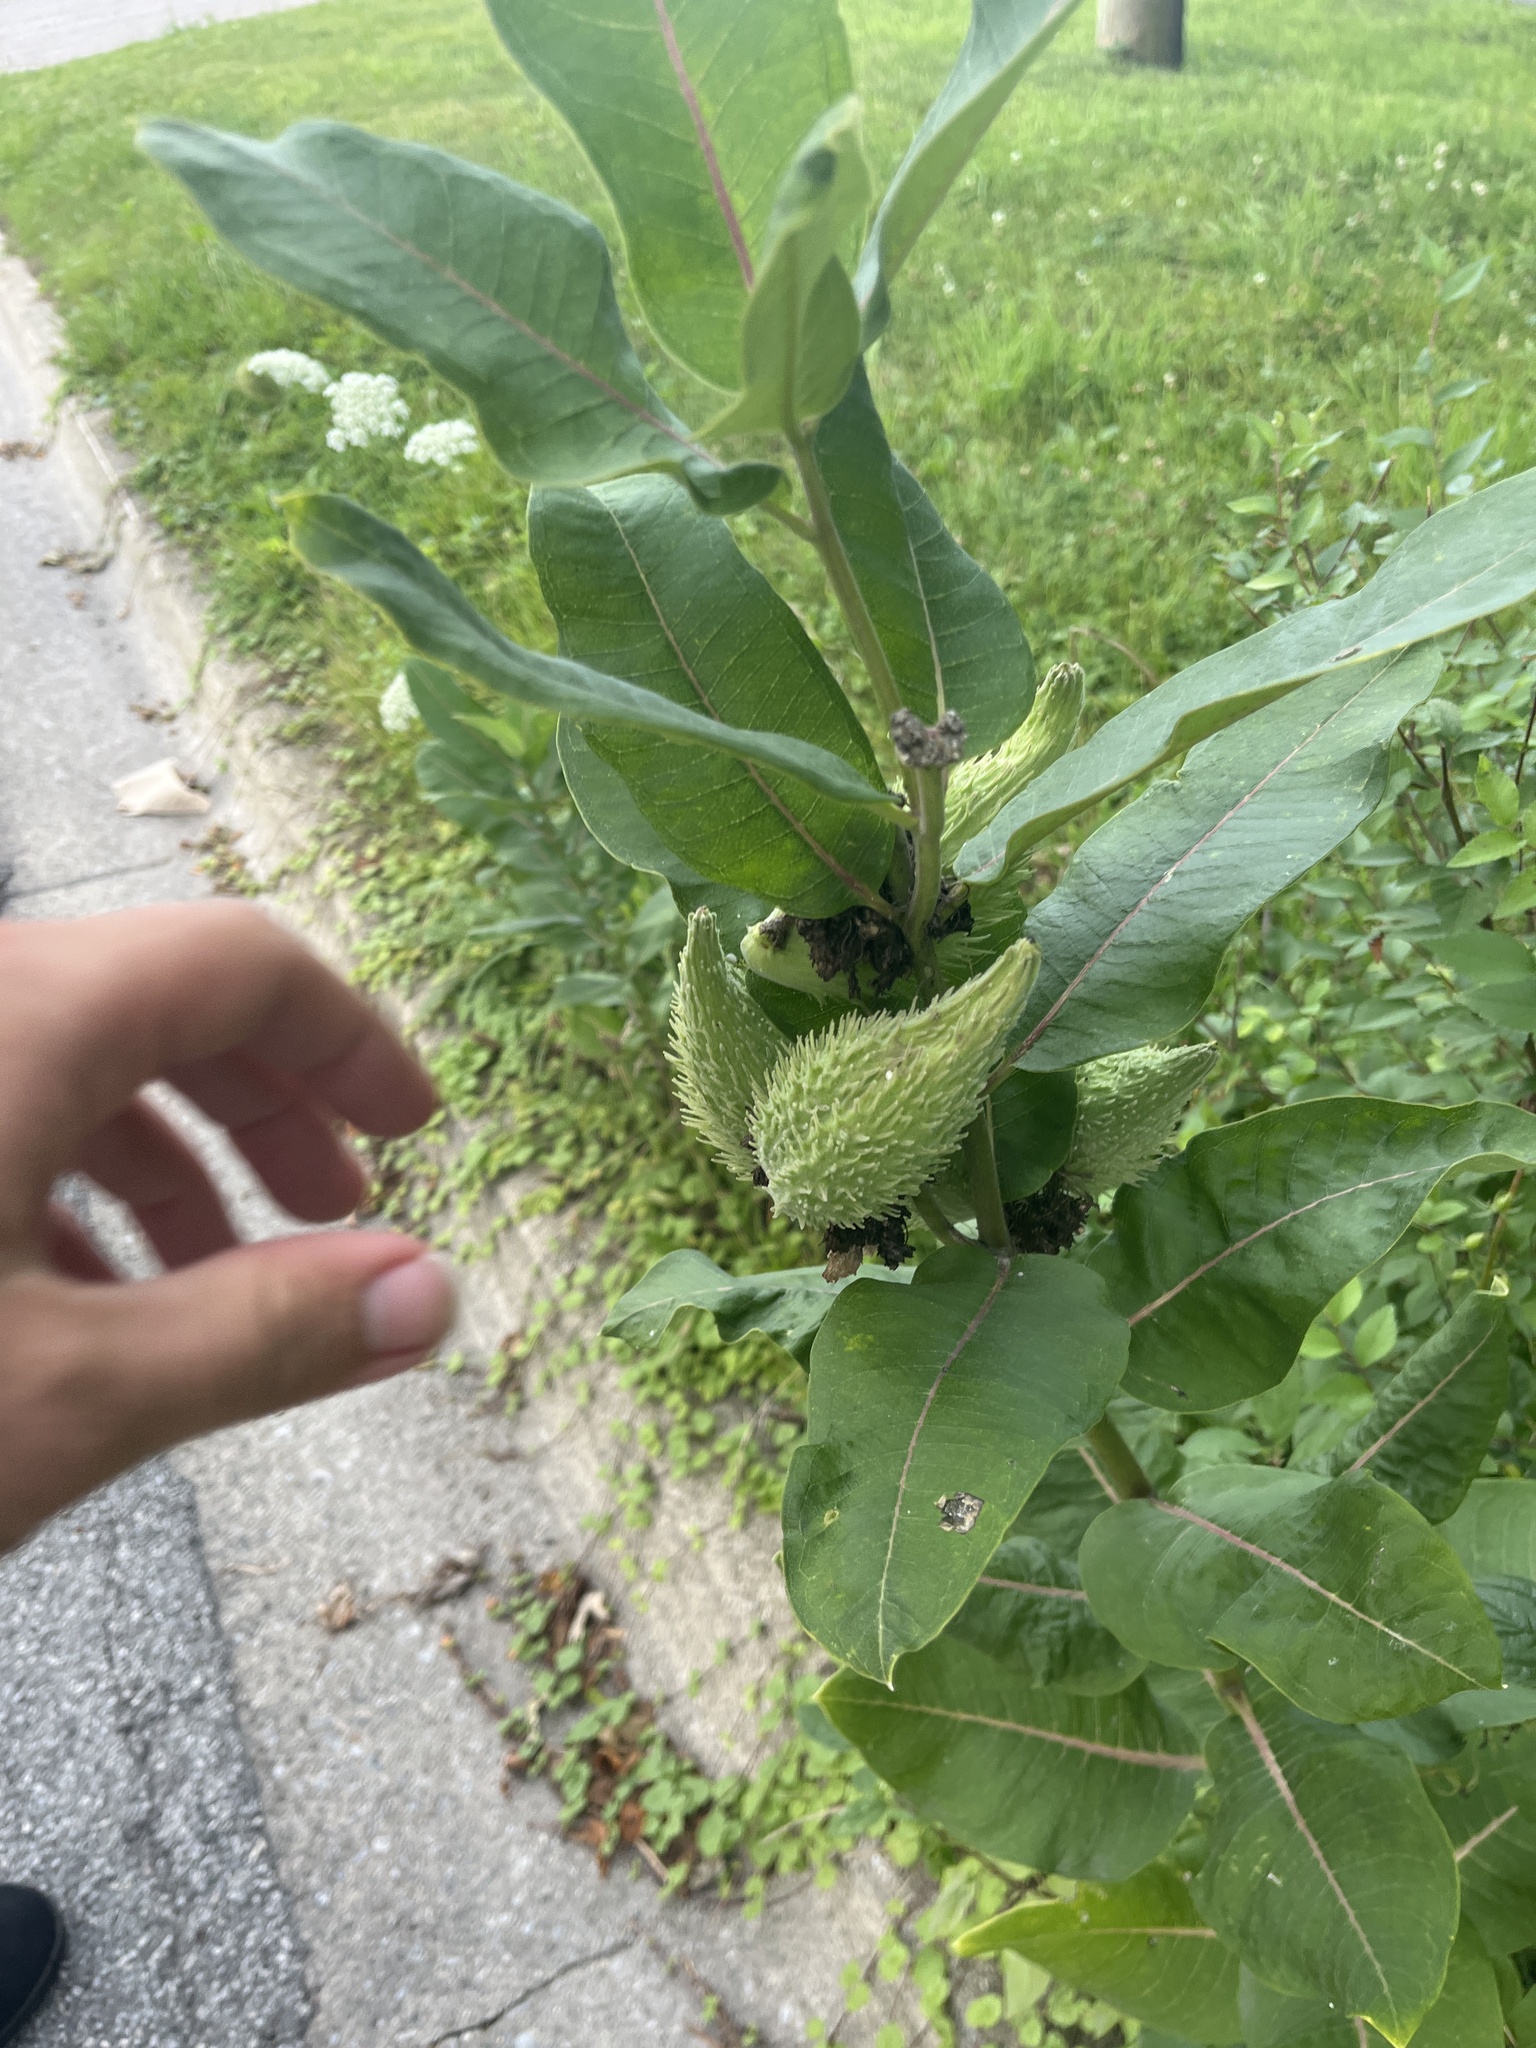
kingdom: Plantae
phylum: Tracheophyta
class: Magnoliopsida
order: Gentianales
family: Apocynaceae
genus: Asclepias
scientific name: Asclepias syriaca
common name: Common milkweed
